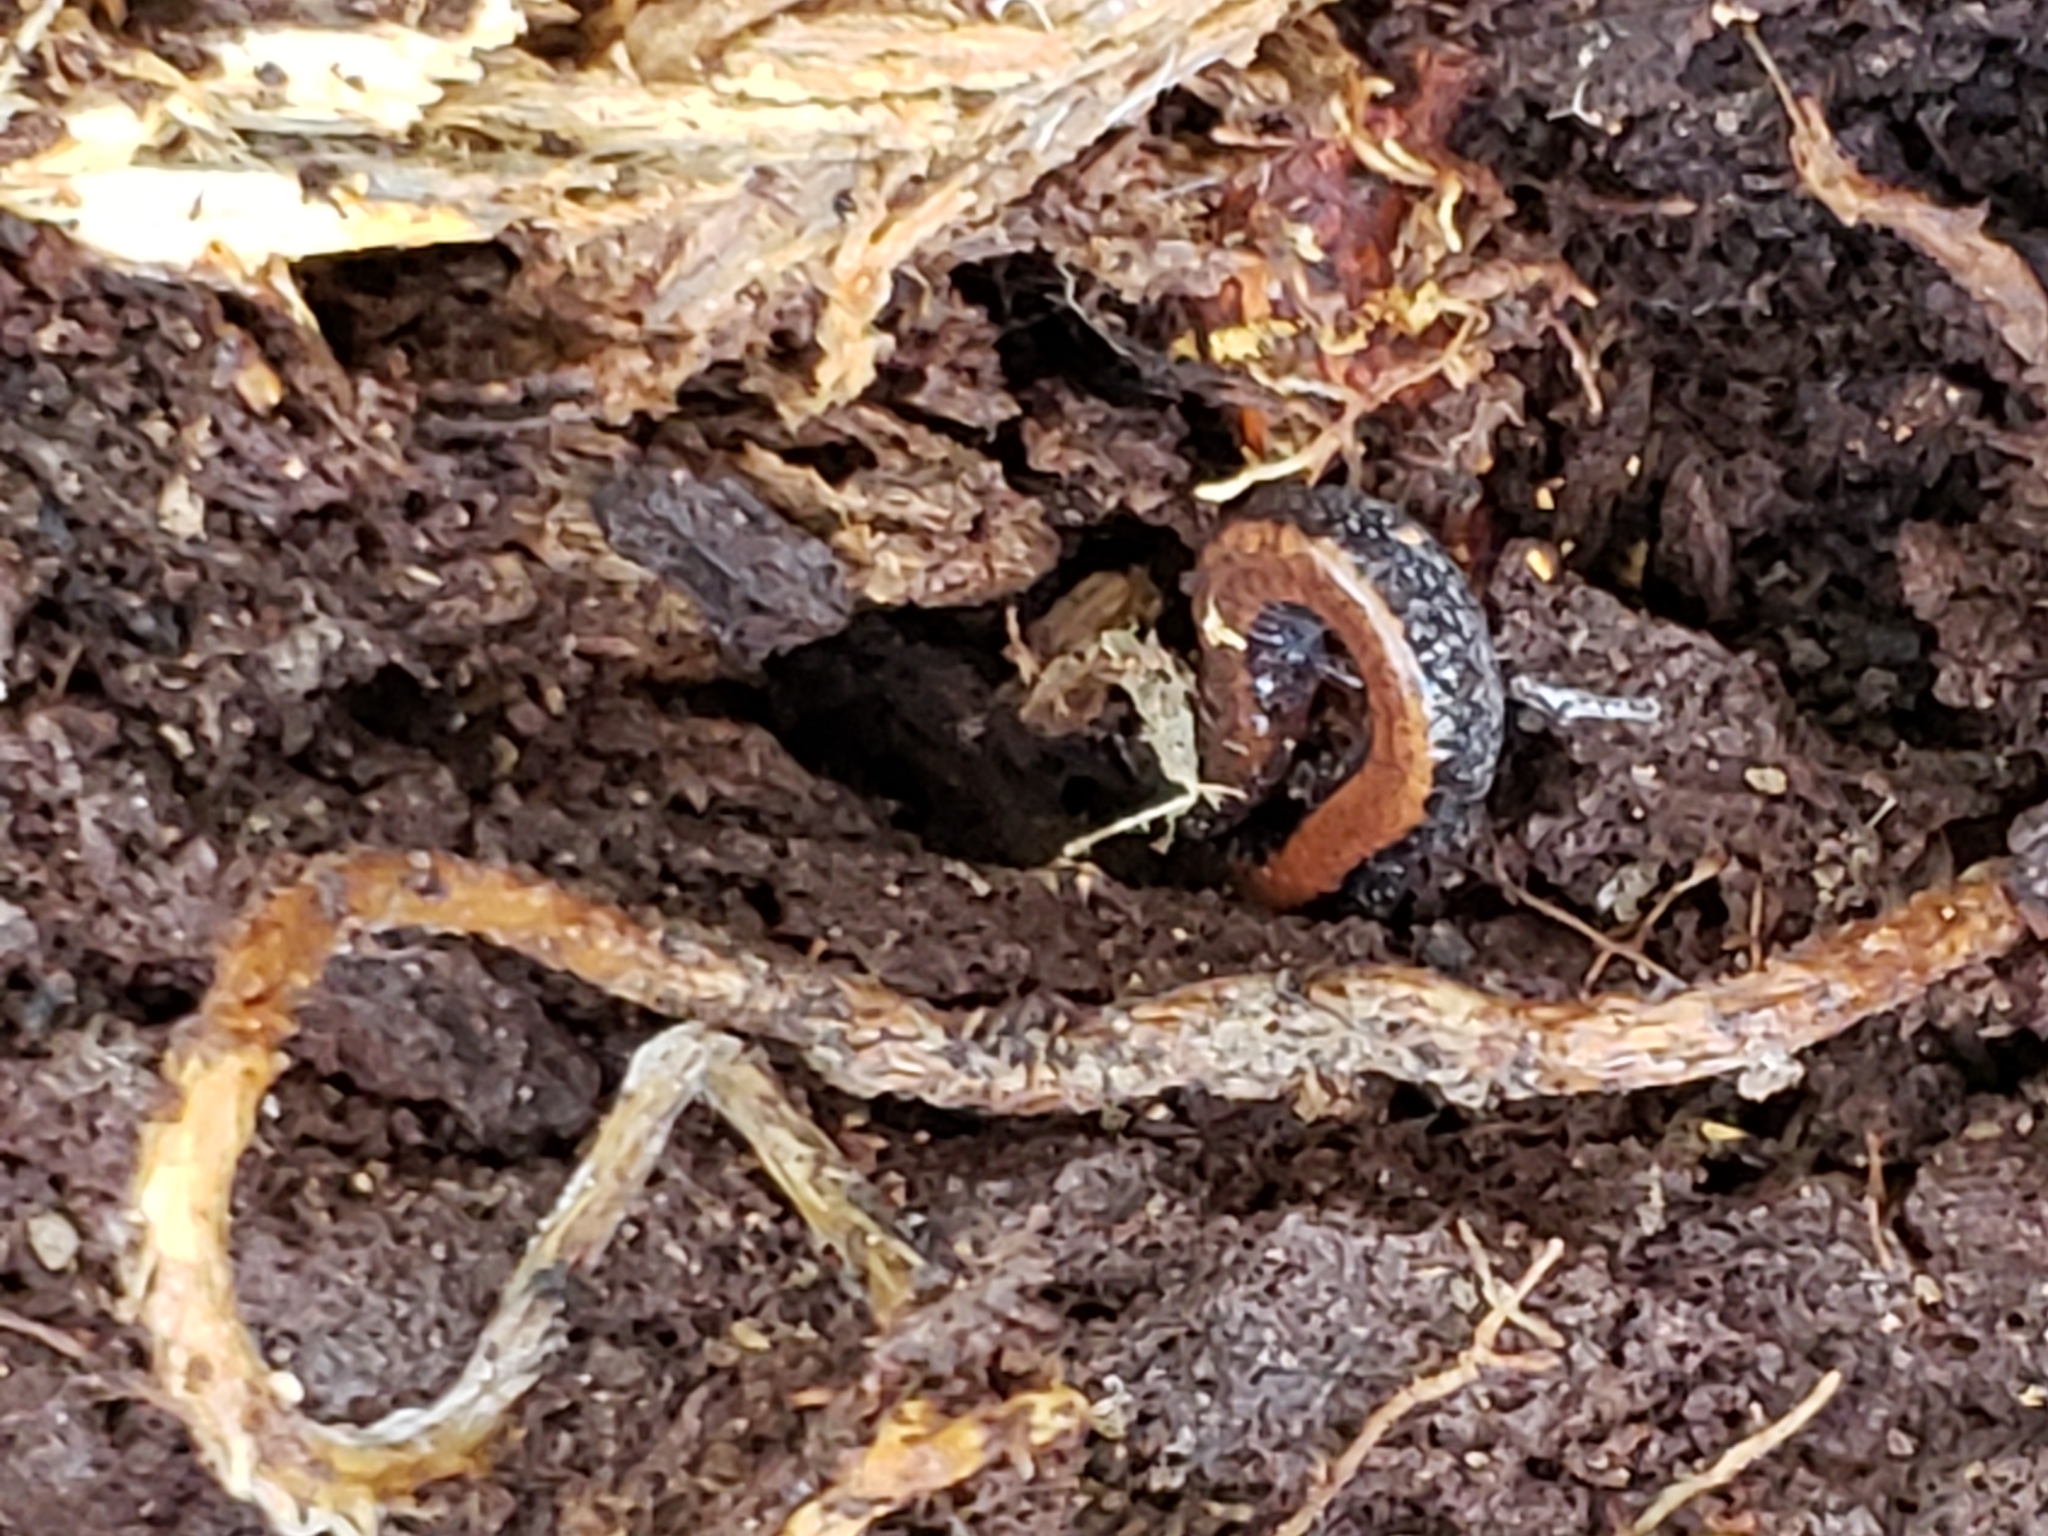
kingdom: Animalia
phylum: Chordata
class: Amphibia
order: Caudata
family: Plethodontidae
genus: Plethodon
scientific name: Plethodon cinereus
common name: Redback salamander
